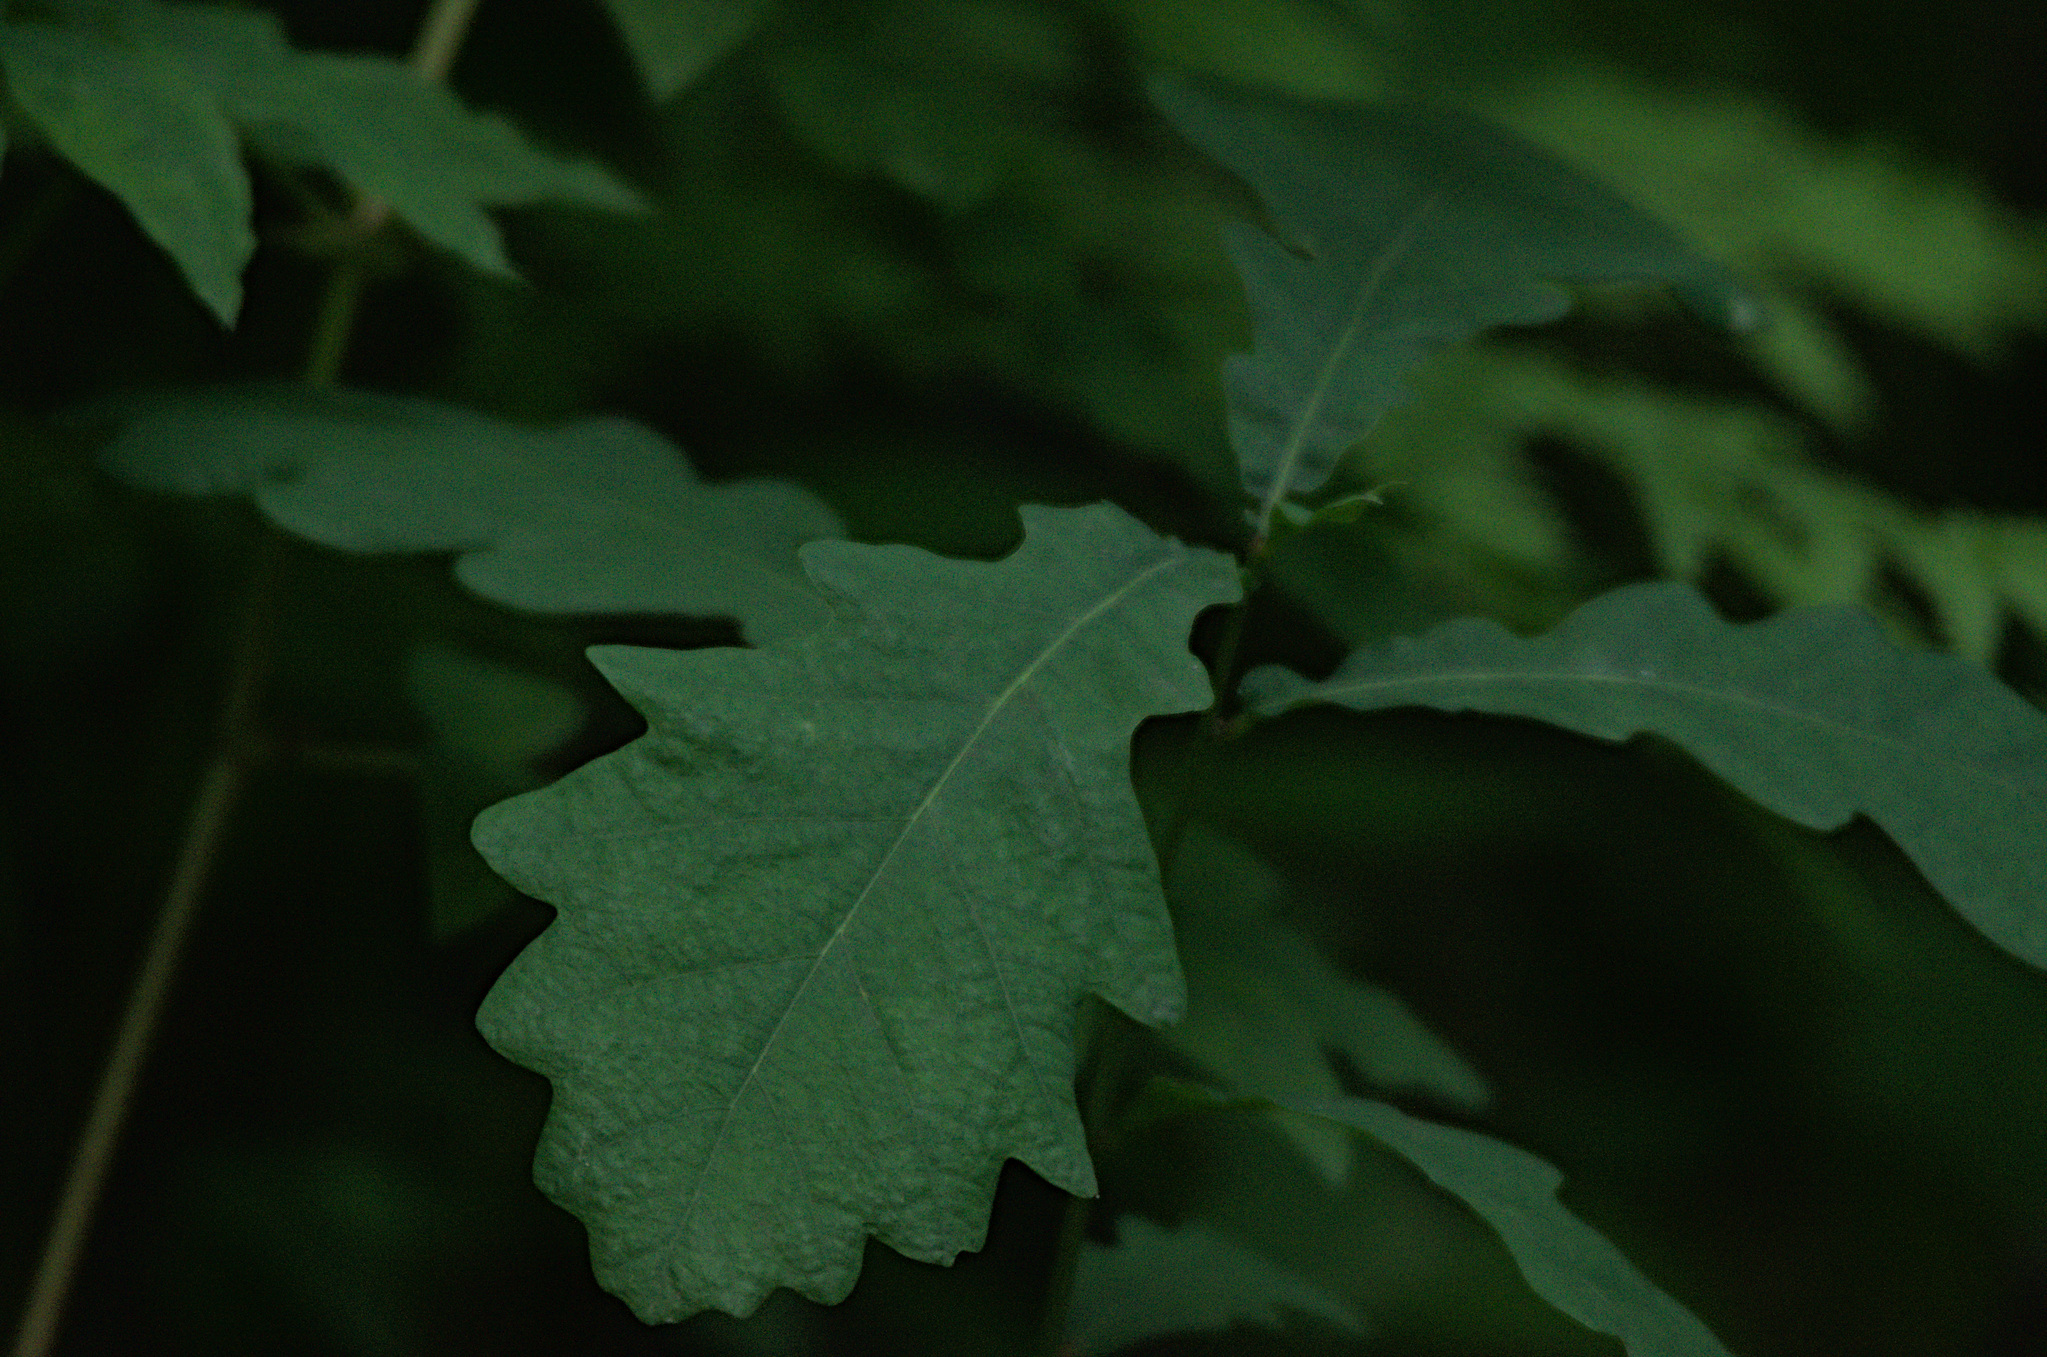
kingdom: Plantae
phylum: Tracheophyta
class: Magnoliopsida
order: Fagales
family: Fagaceae
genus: Quercus
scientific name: Quercus robur
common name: Pedunculate oak
